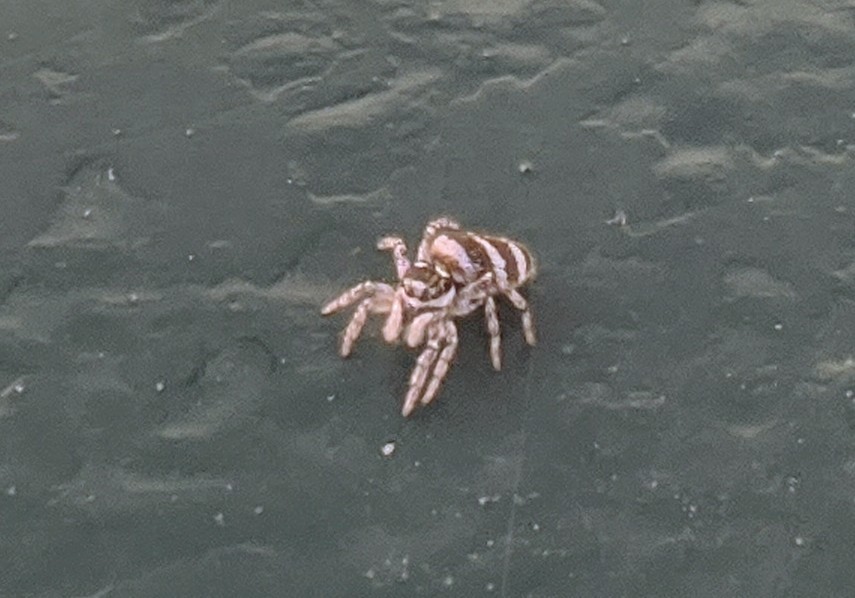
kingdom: Animalia
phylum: Arthropoda
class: Arachnida
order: Araneae
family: Salticidae
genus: Salticus
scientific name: Salticus scenicus
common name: Zebra jumper
